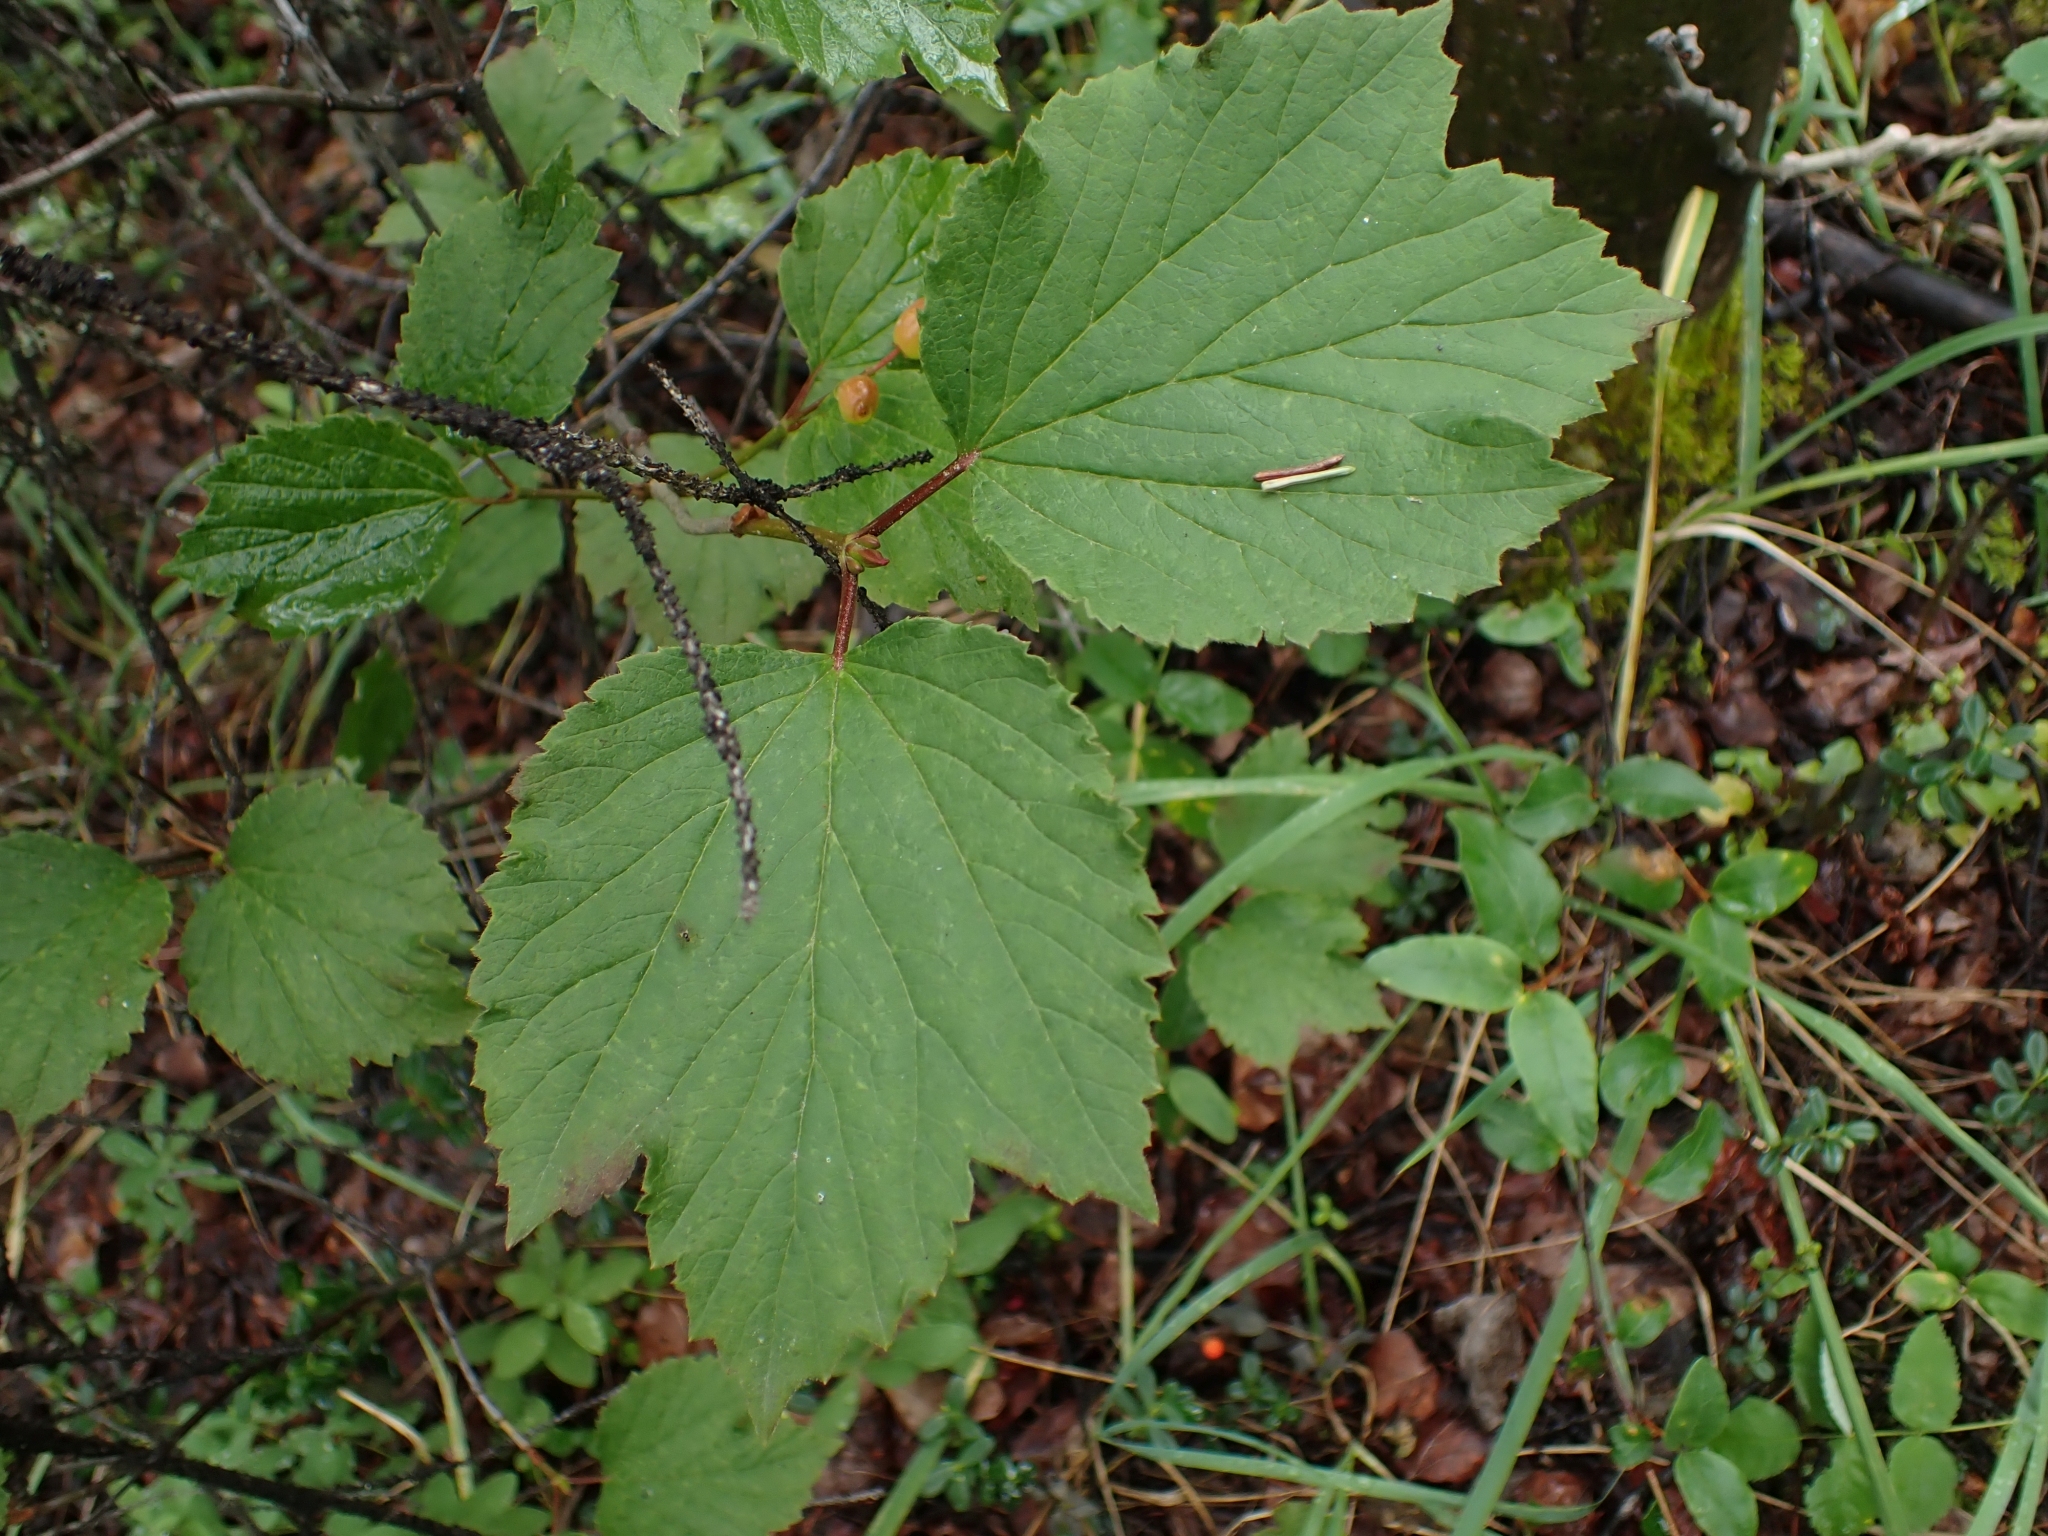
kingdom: Plantae
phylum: Tracheophyta
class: Magnoliopsida
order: Dipsacales
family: Viburnaceae
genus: Viburnum
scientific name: Viburnum edule
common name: Mooseberry
